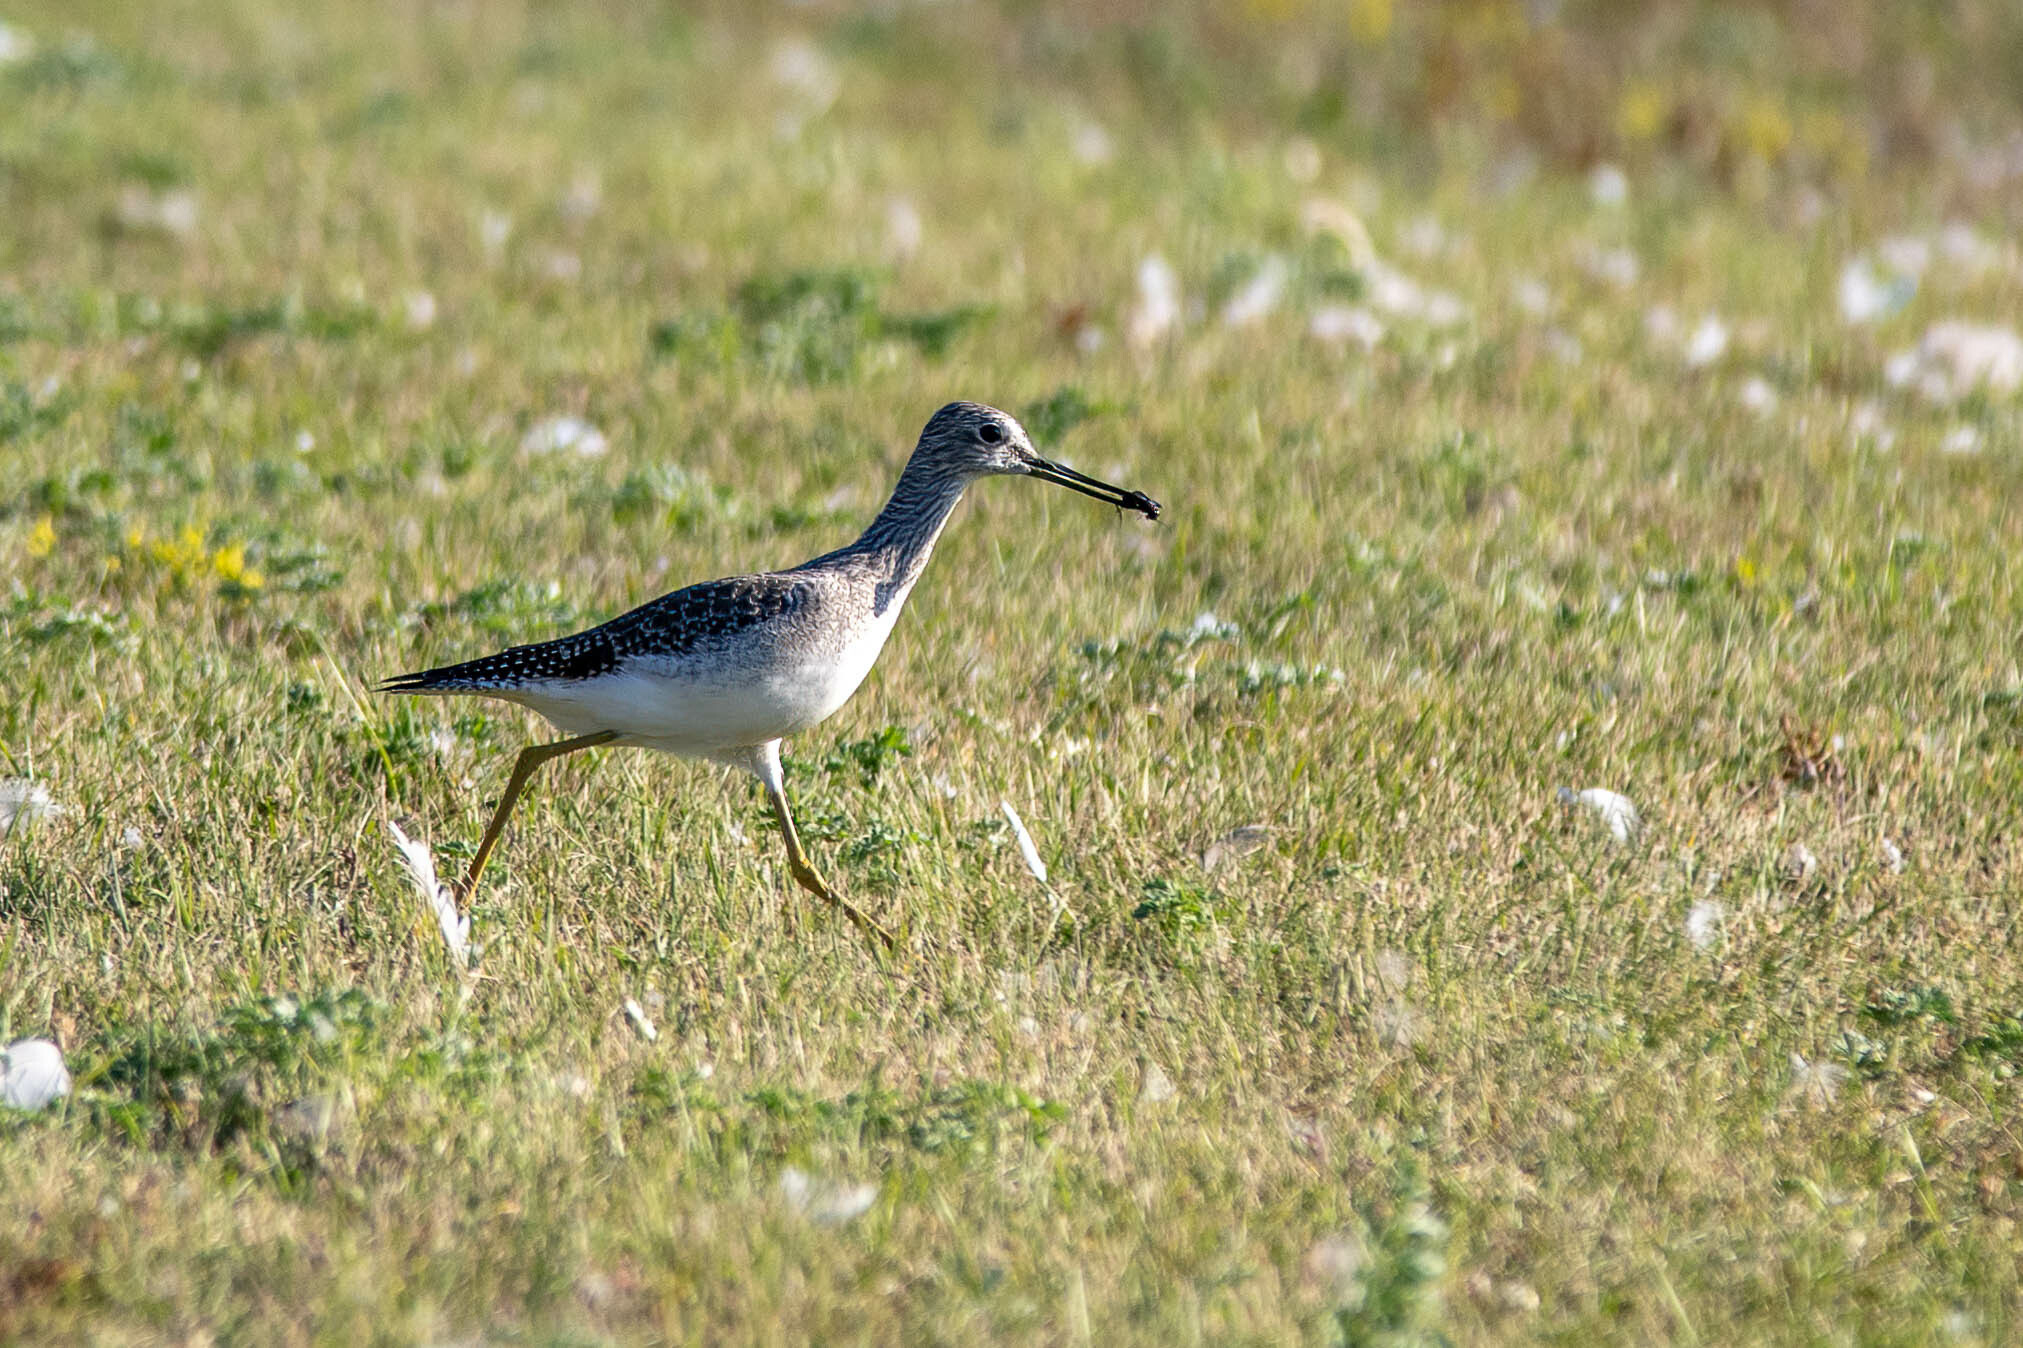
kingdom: Animalia
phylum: Chordata
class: Aves
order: Charadriiformes
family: Scolopacidae
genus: Tringa
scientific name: Tringa melanoleuca
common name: Greater yellowlegs
